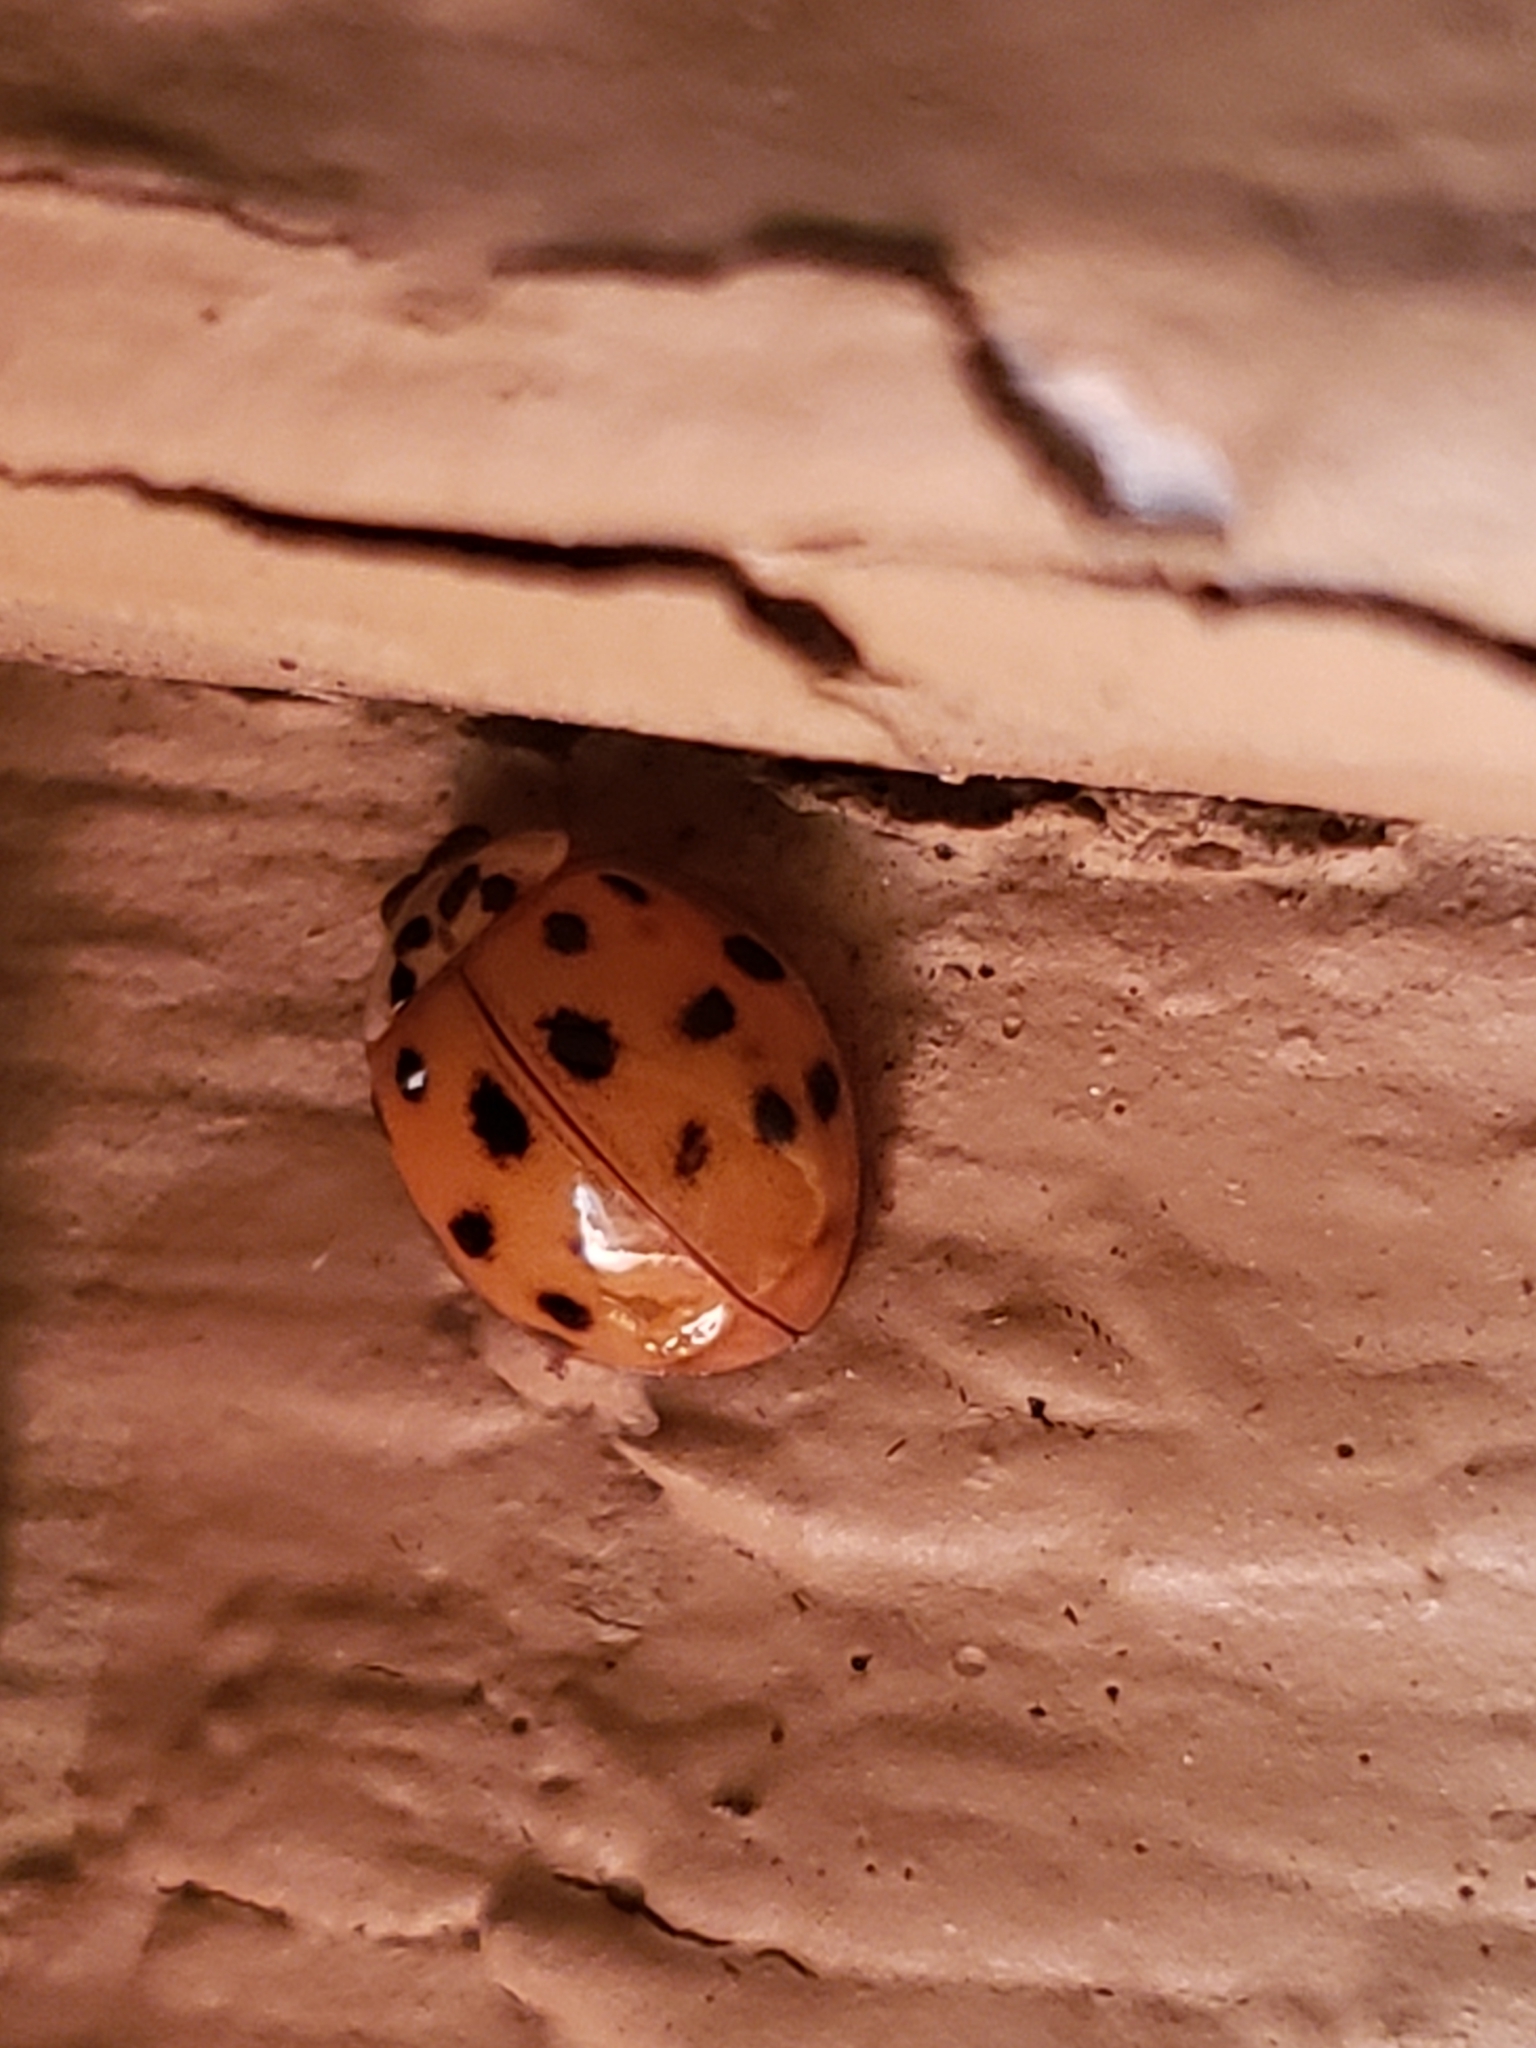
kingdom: Animalia
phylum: Arthropoda
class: Insecta
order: Coleoptera
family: Coccinellidae
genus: Harmonia
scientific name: Harmonia axyridis
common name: Harlequin ladybird
